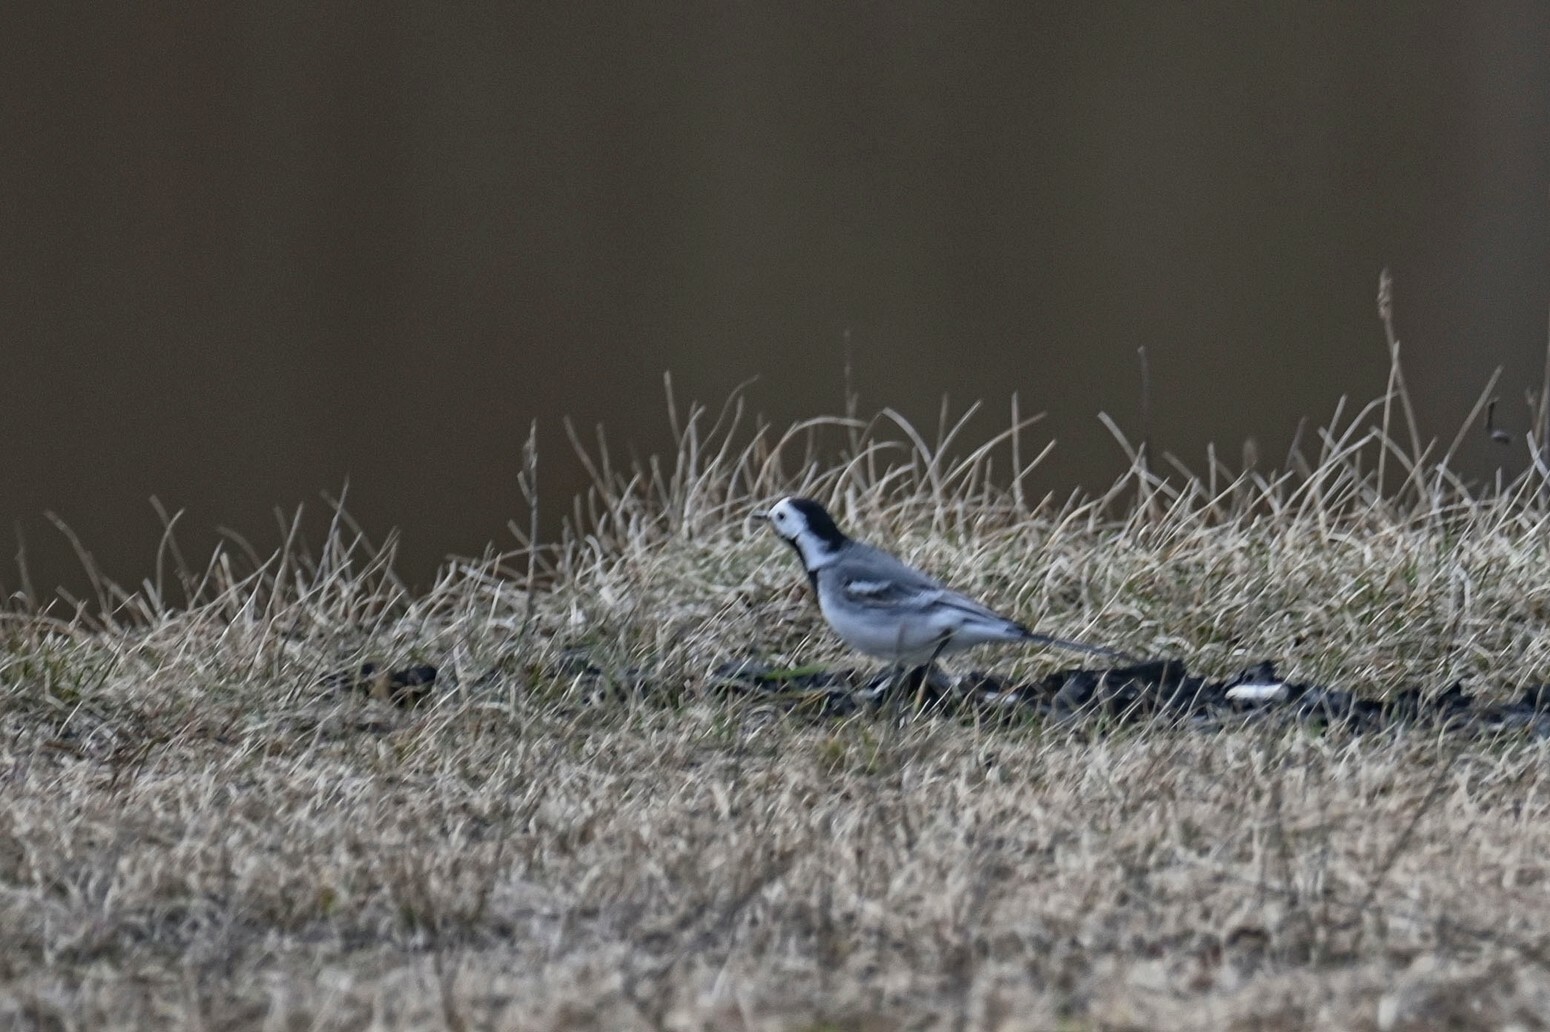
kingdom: Animalia
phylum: Chordata
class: Aves
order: Passeriformes
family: Motacillidae
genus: Motacilla
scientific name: Motacilla alba
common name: White wagtail
